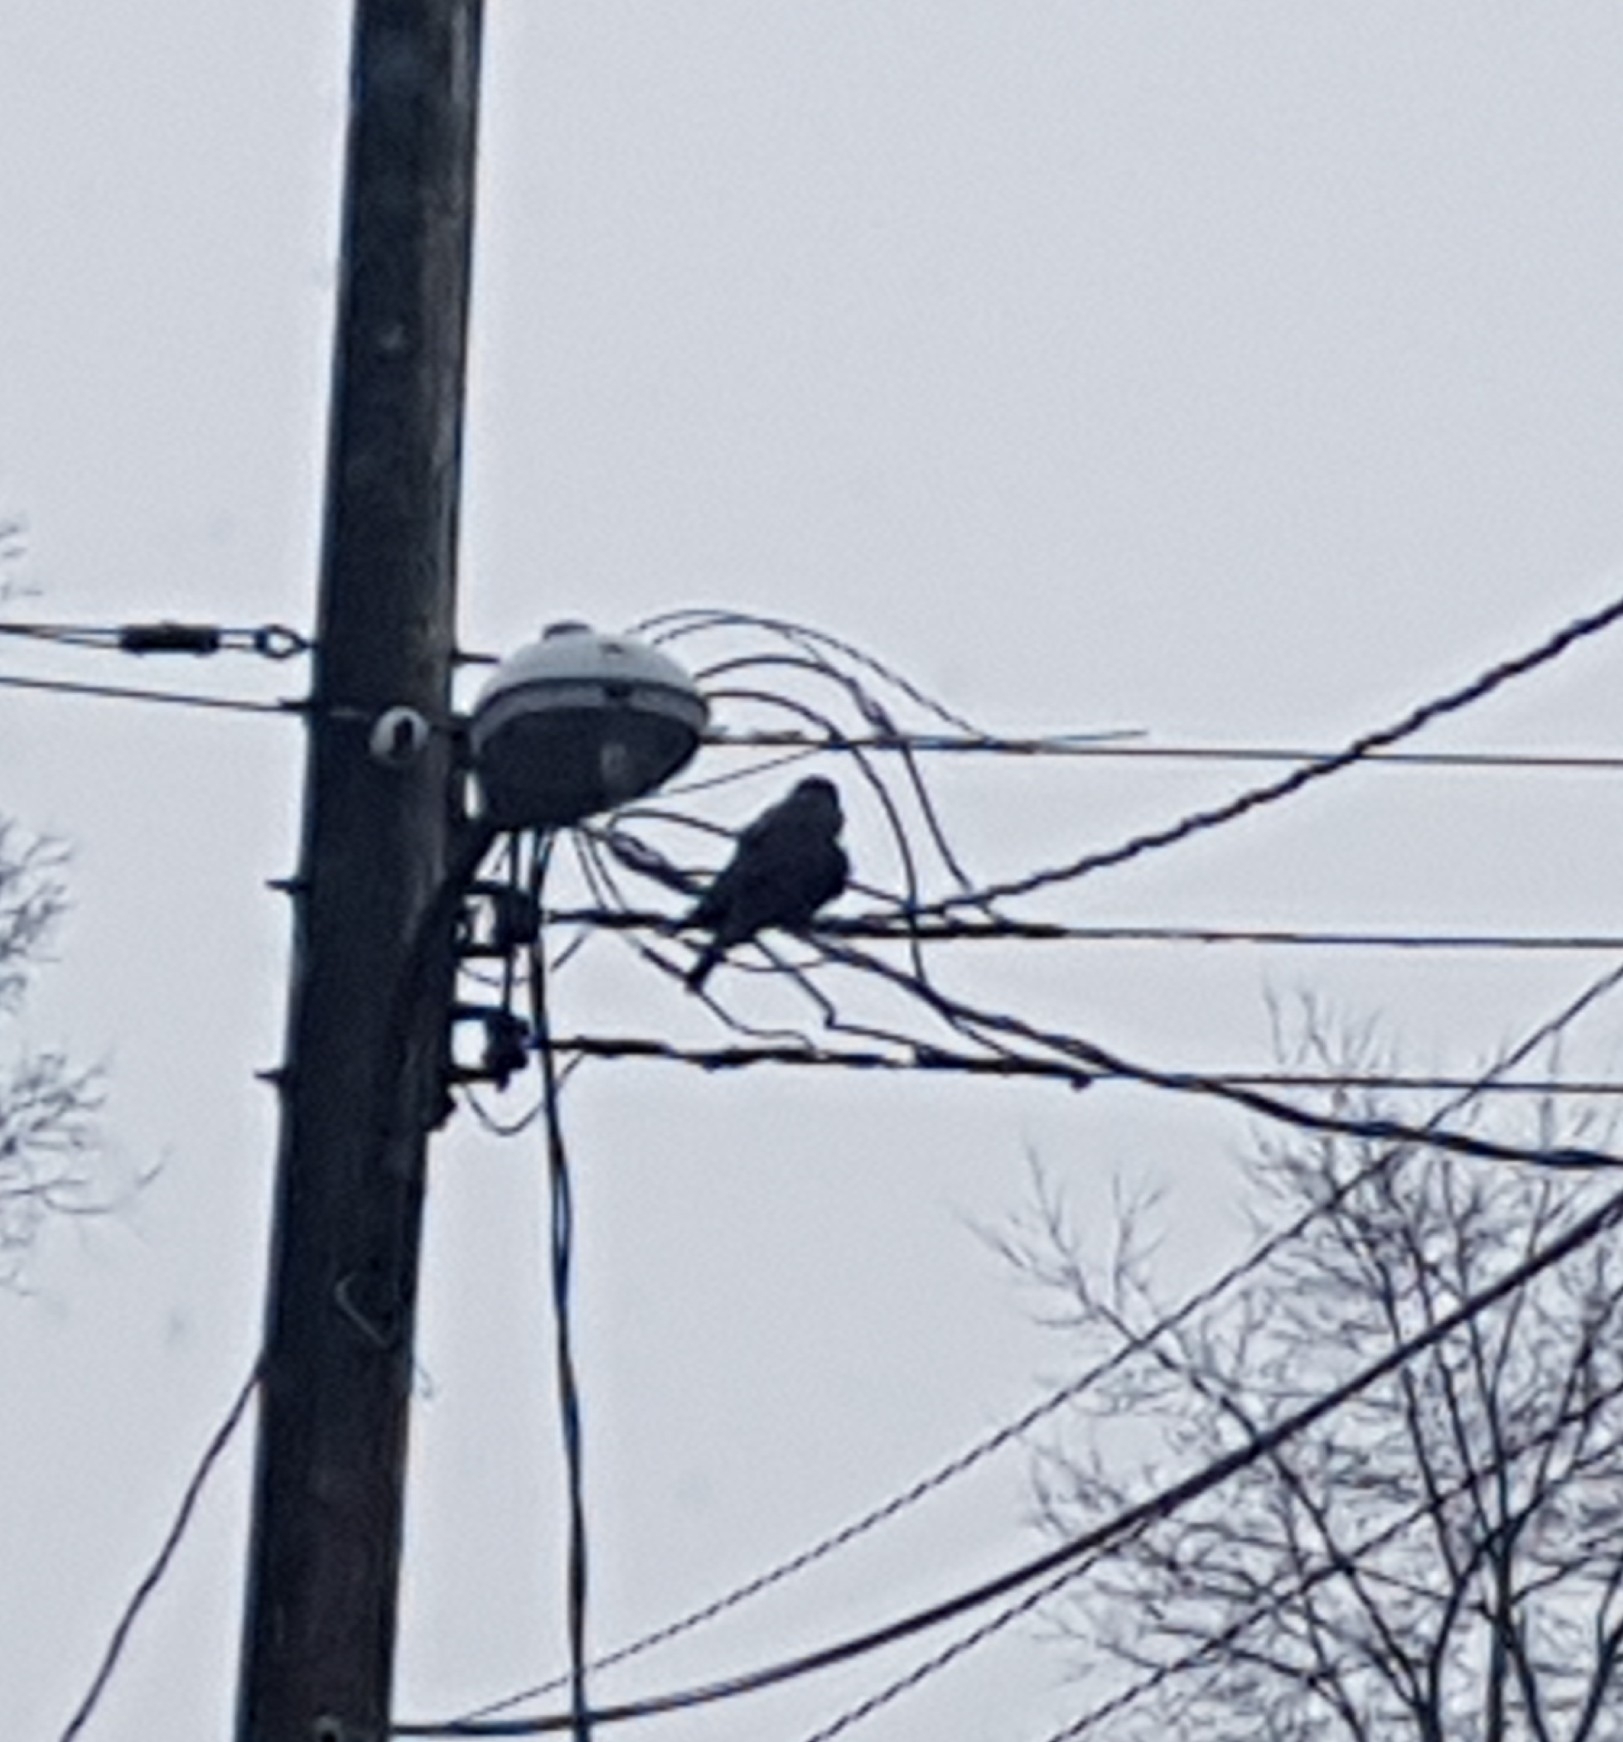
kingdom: Animalia
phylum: Chordata
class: Aves
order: Passeriformes
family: Corvidae
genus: Corvus
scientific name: Corvus brachyrhynchos
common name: American crow
